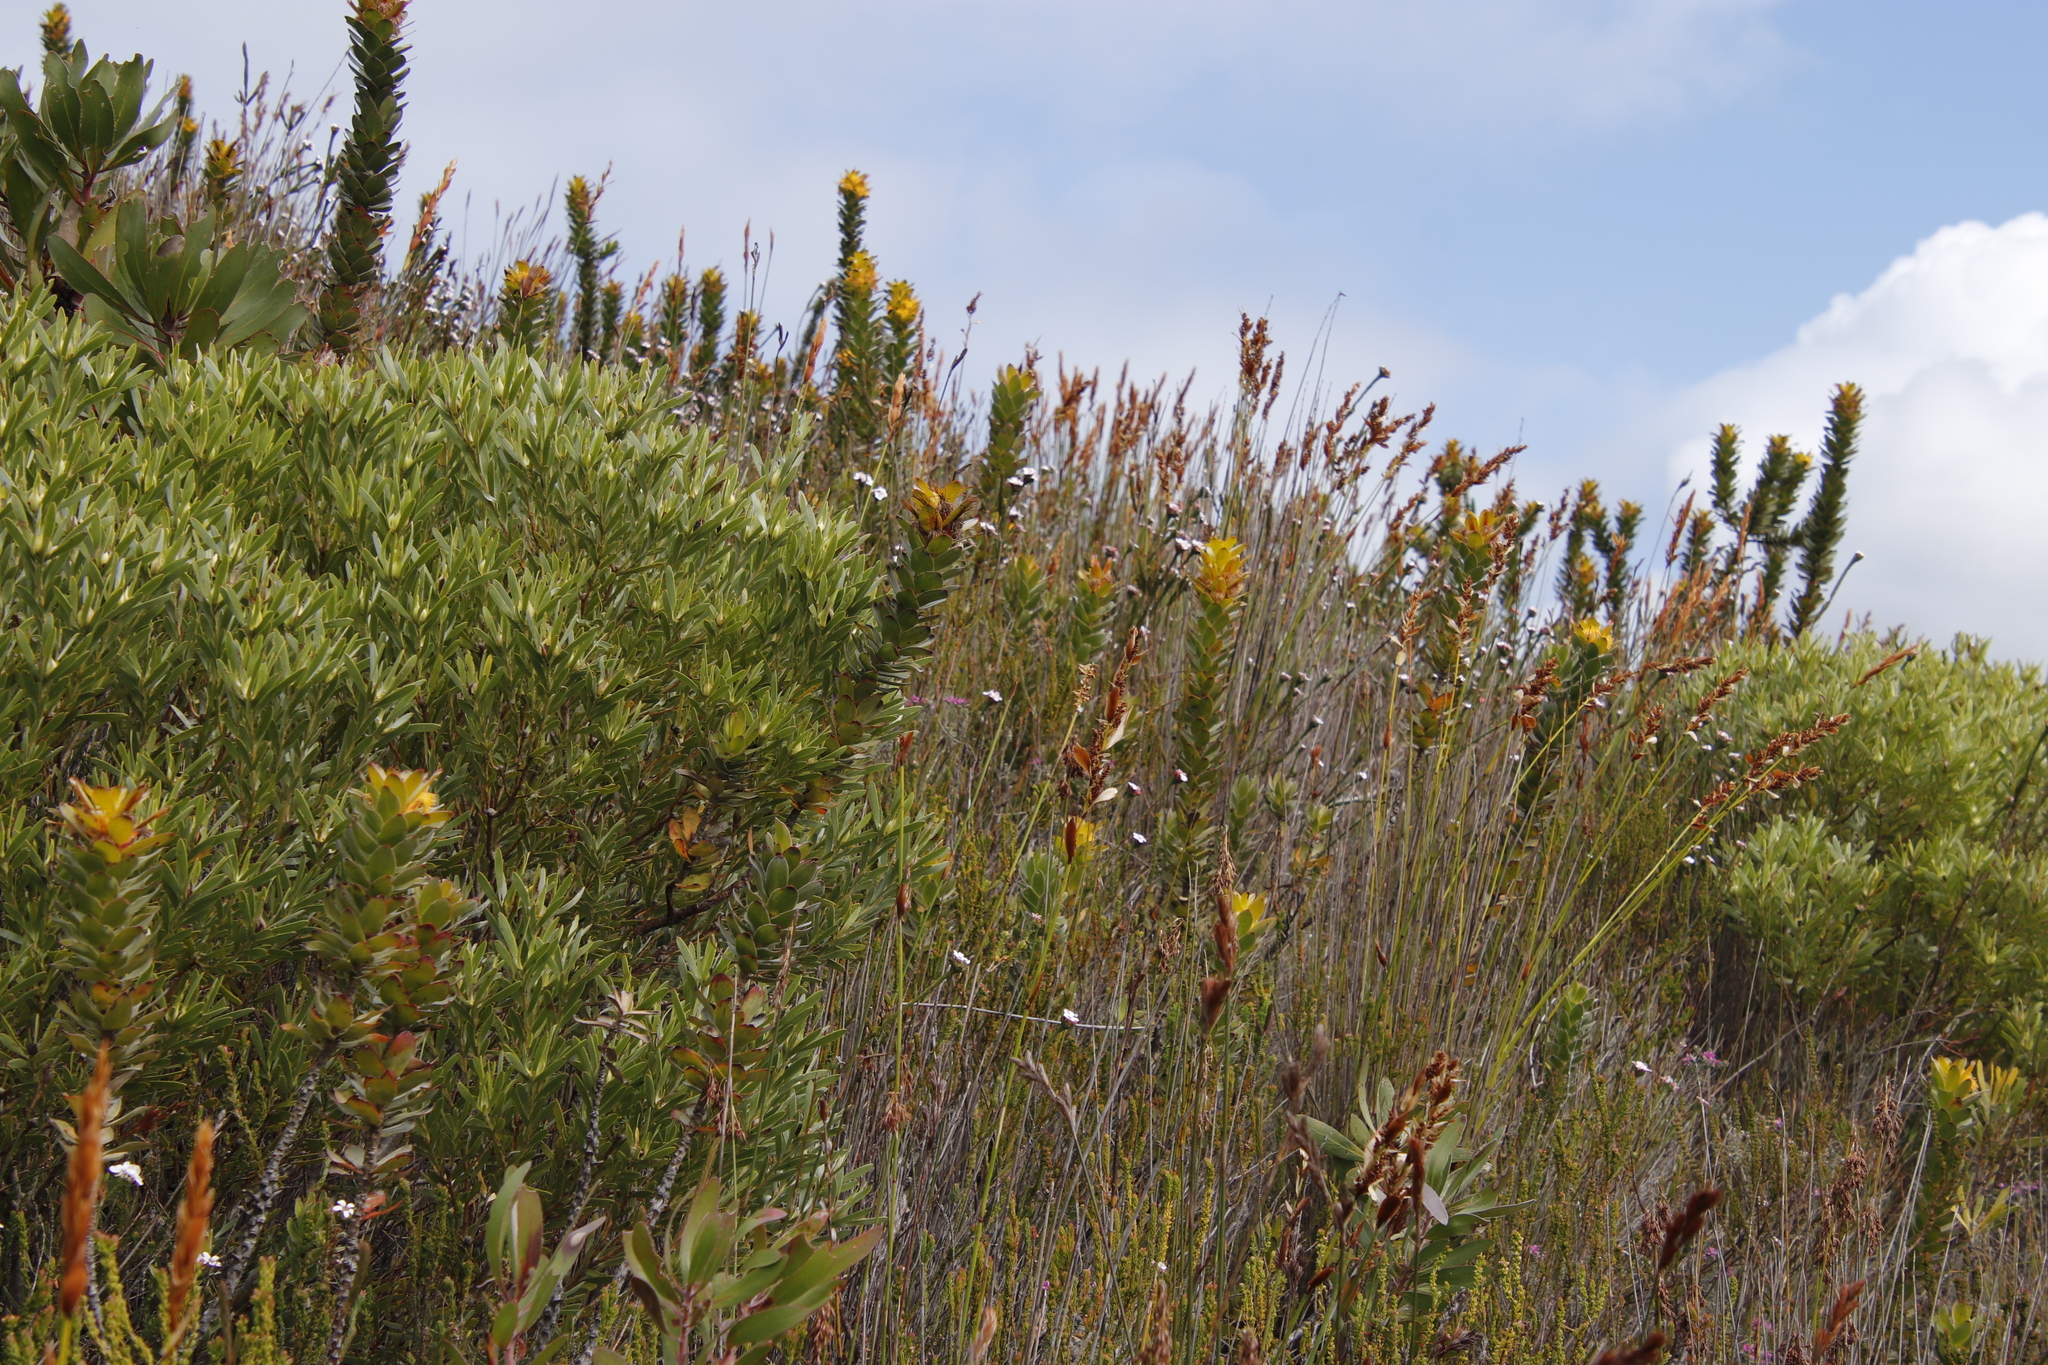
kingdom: Plantae
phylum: Tracheophyta
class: Magnoliopsida
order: Proteales
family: Proteaceae
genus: Mimetes
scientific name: Mimetes saxatilis
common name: Limestone pagoda
